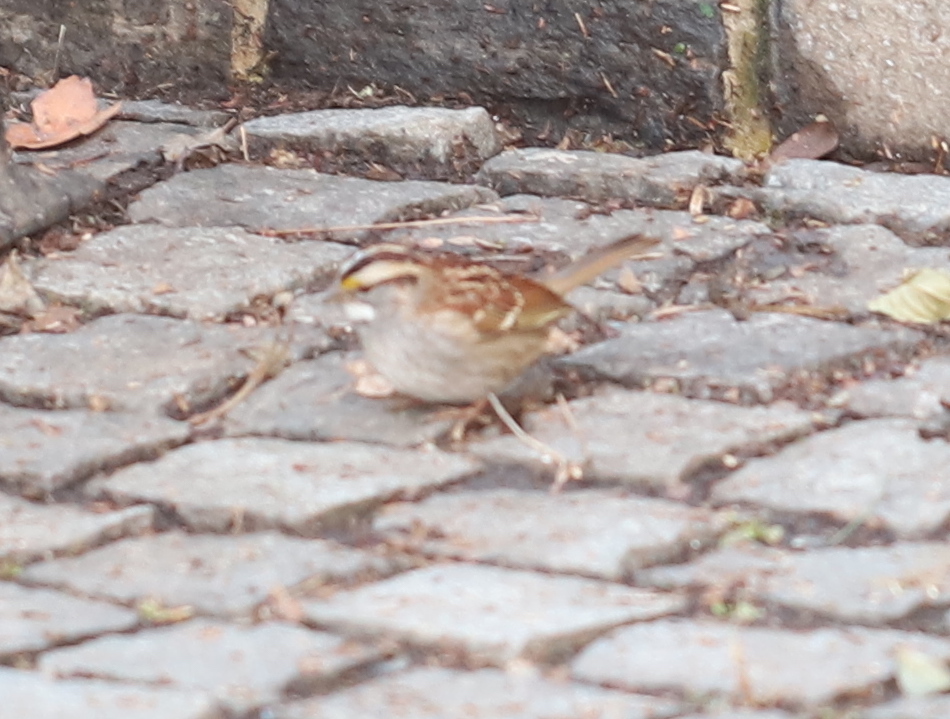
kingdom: Animalia
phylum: Chordata
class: Aves
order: Passeriformes
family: Passerellidae
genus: Zonotrichia
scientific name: Zonotrichia albicollis
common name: White-throated sparrow
